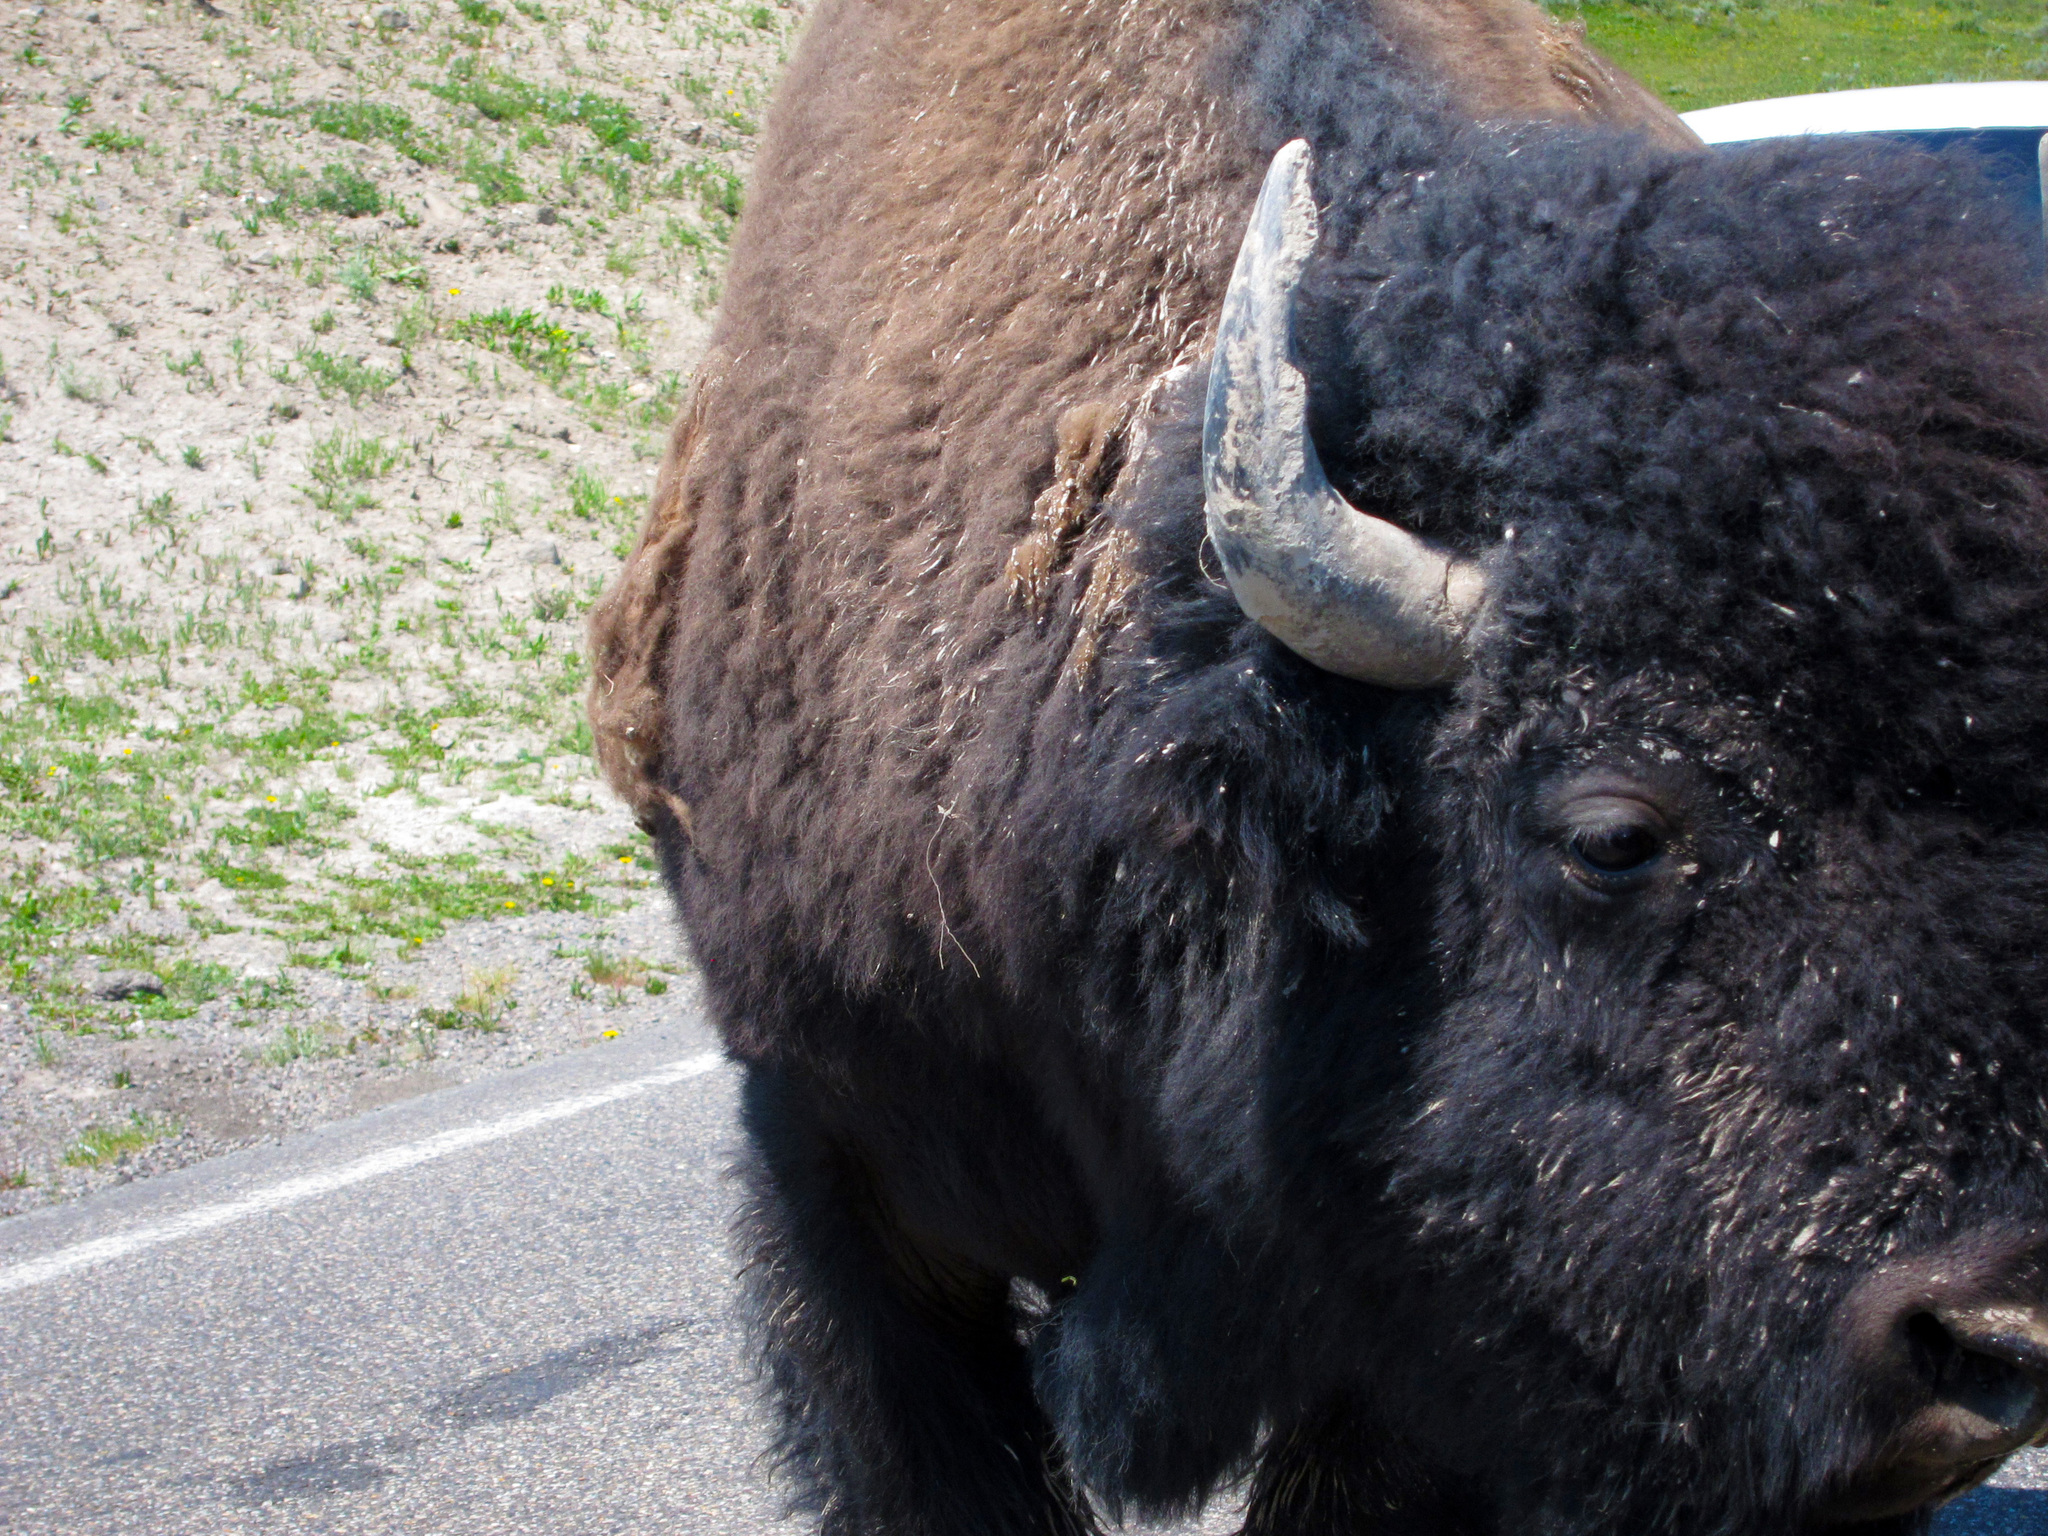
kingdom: Animalia
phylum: Chordata
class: Mammalia
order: Artiodactyla
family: Bovidae
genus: Bison
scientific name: Bison bison
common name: American bison
